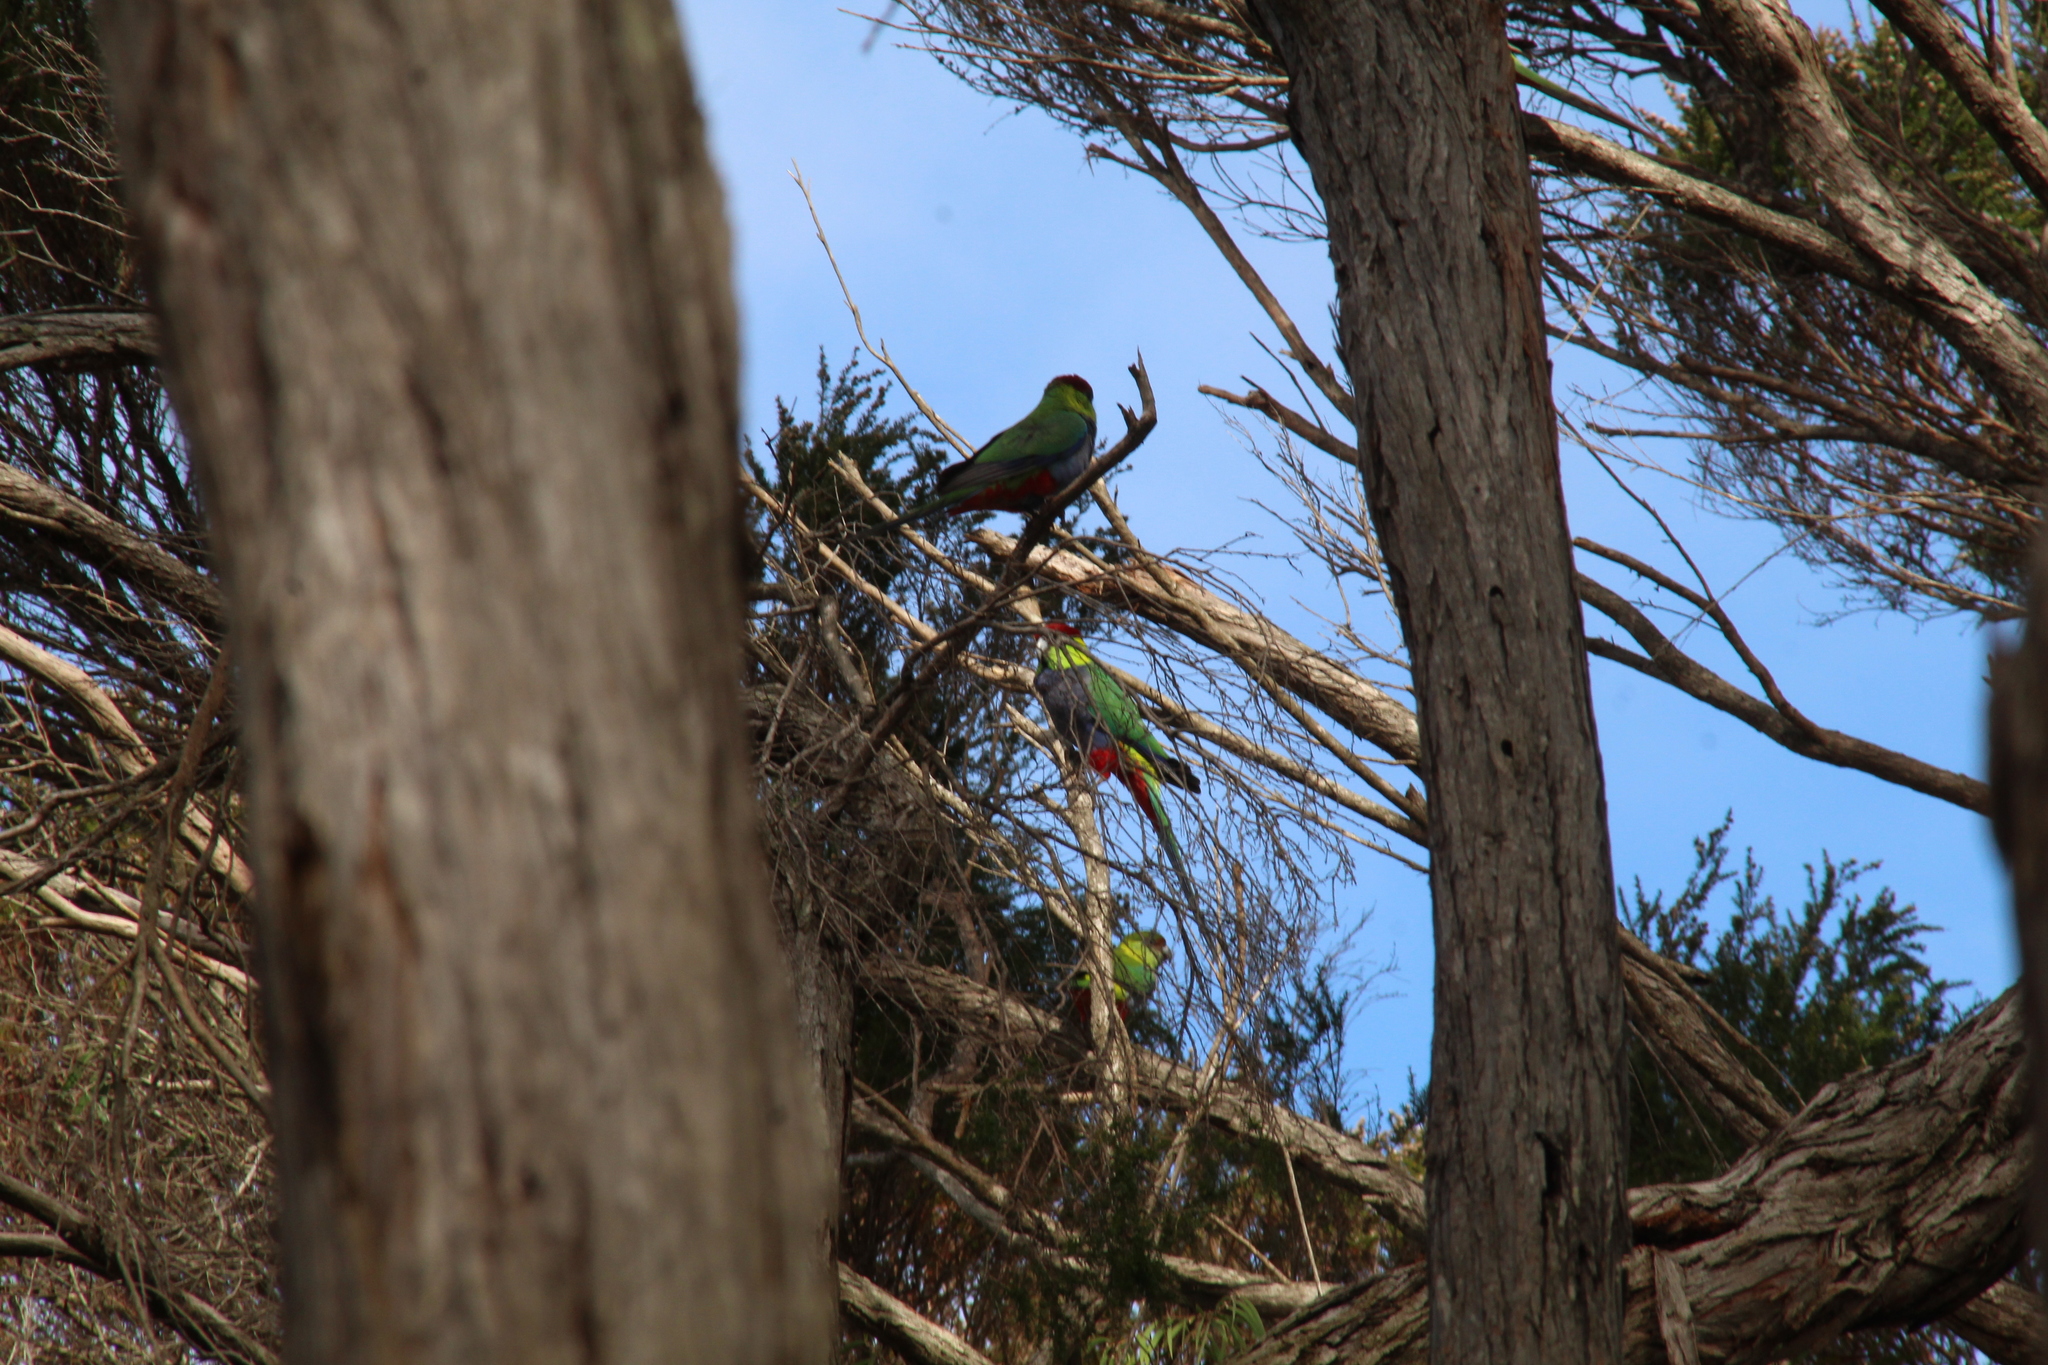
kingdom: Animalia
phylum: Chordata
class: Aves
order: Psittaciformes
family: Psittacidae
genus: Purpureicephalus
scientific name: Purpureicephalus spurius
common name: Red-capped parrot
